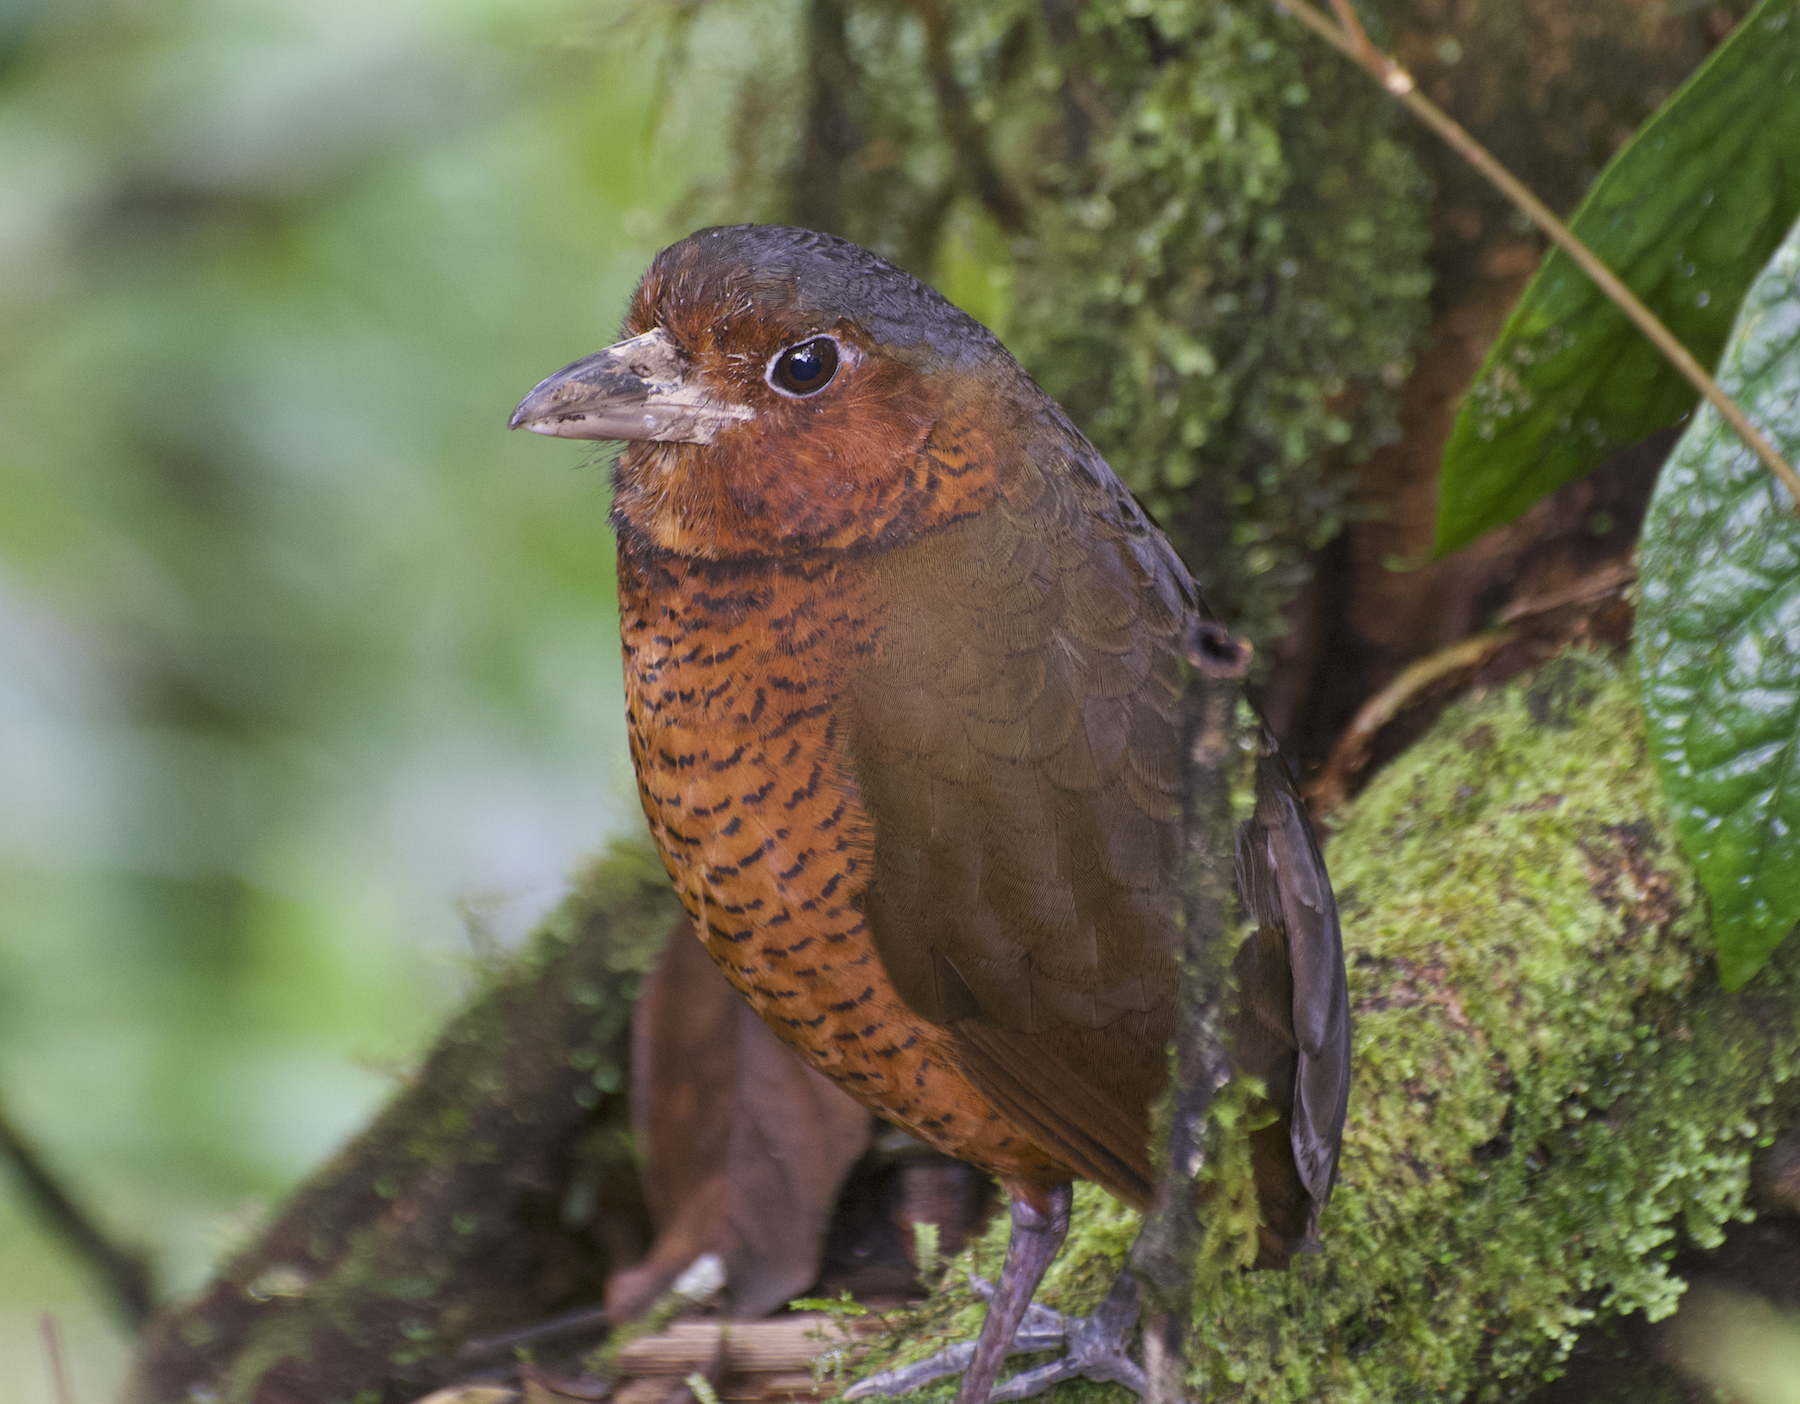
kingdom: Animalia
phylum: Chordata
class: Aves
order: Passeriformes
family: Grallariidae
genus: Grallaria
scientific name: Grallaria gigantea
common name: Giant antpitta
